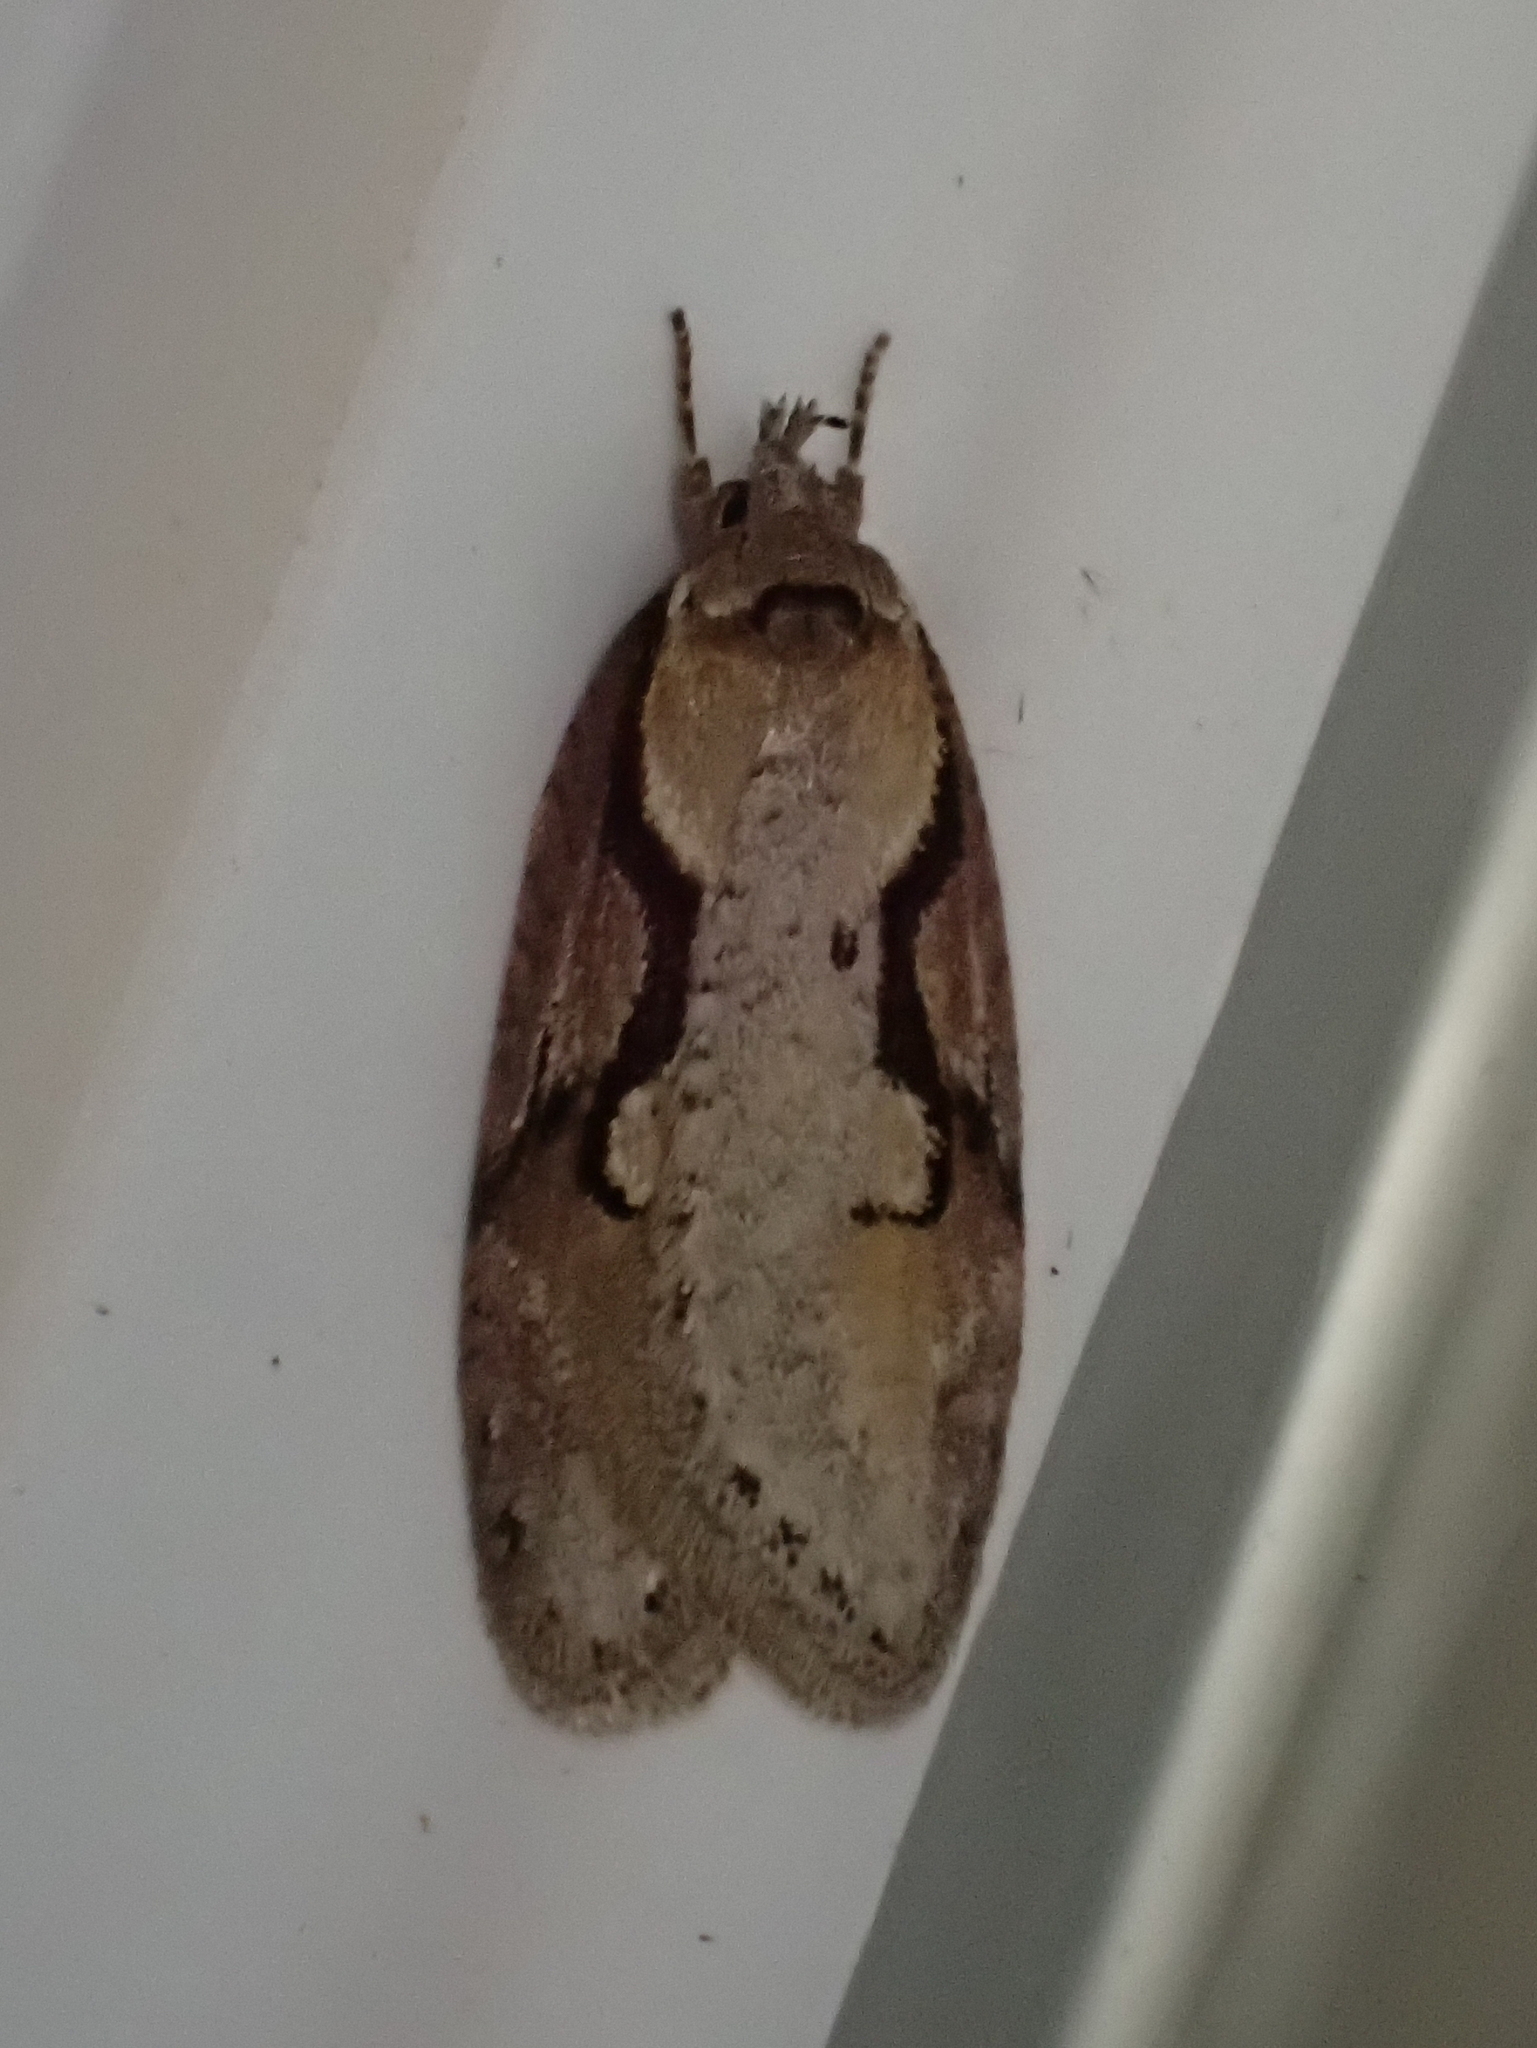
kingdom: Animalia
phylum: Arthropoda
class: Insecta
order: Lepidoptera
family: Depressariidae
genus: Semioscopis
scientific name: Semioscopis packardella
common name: Packard's concealer moth
